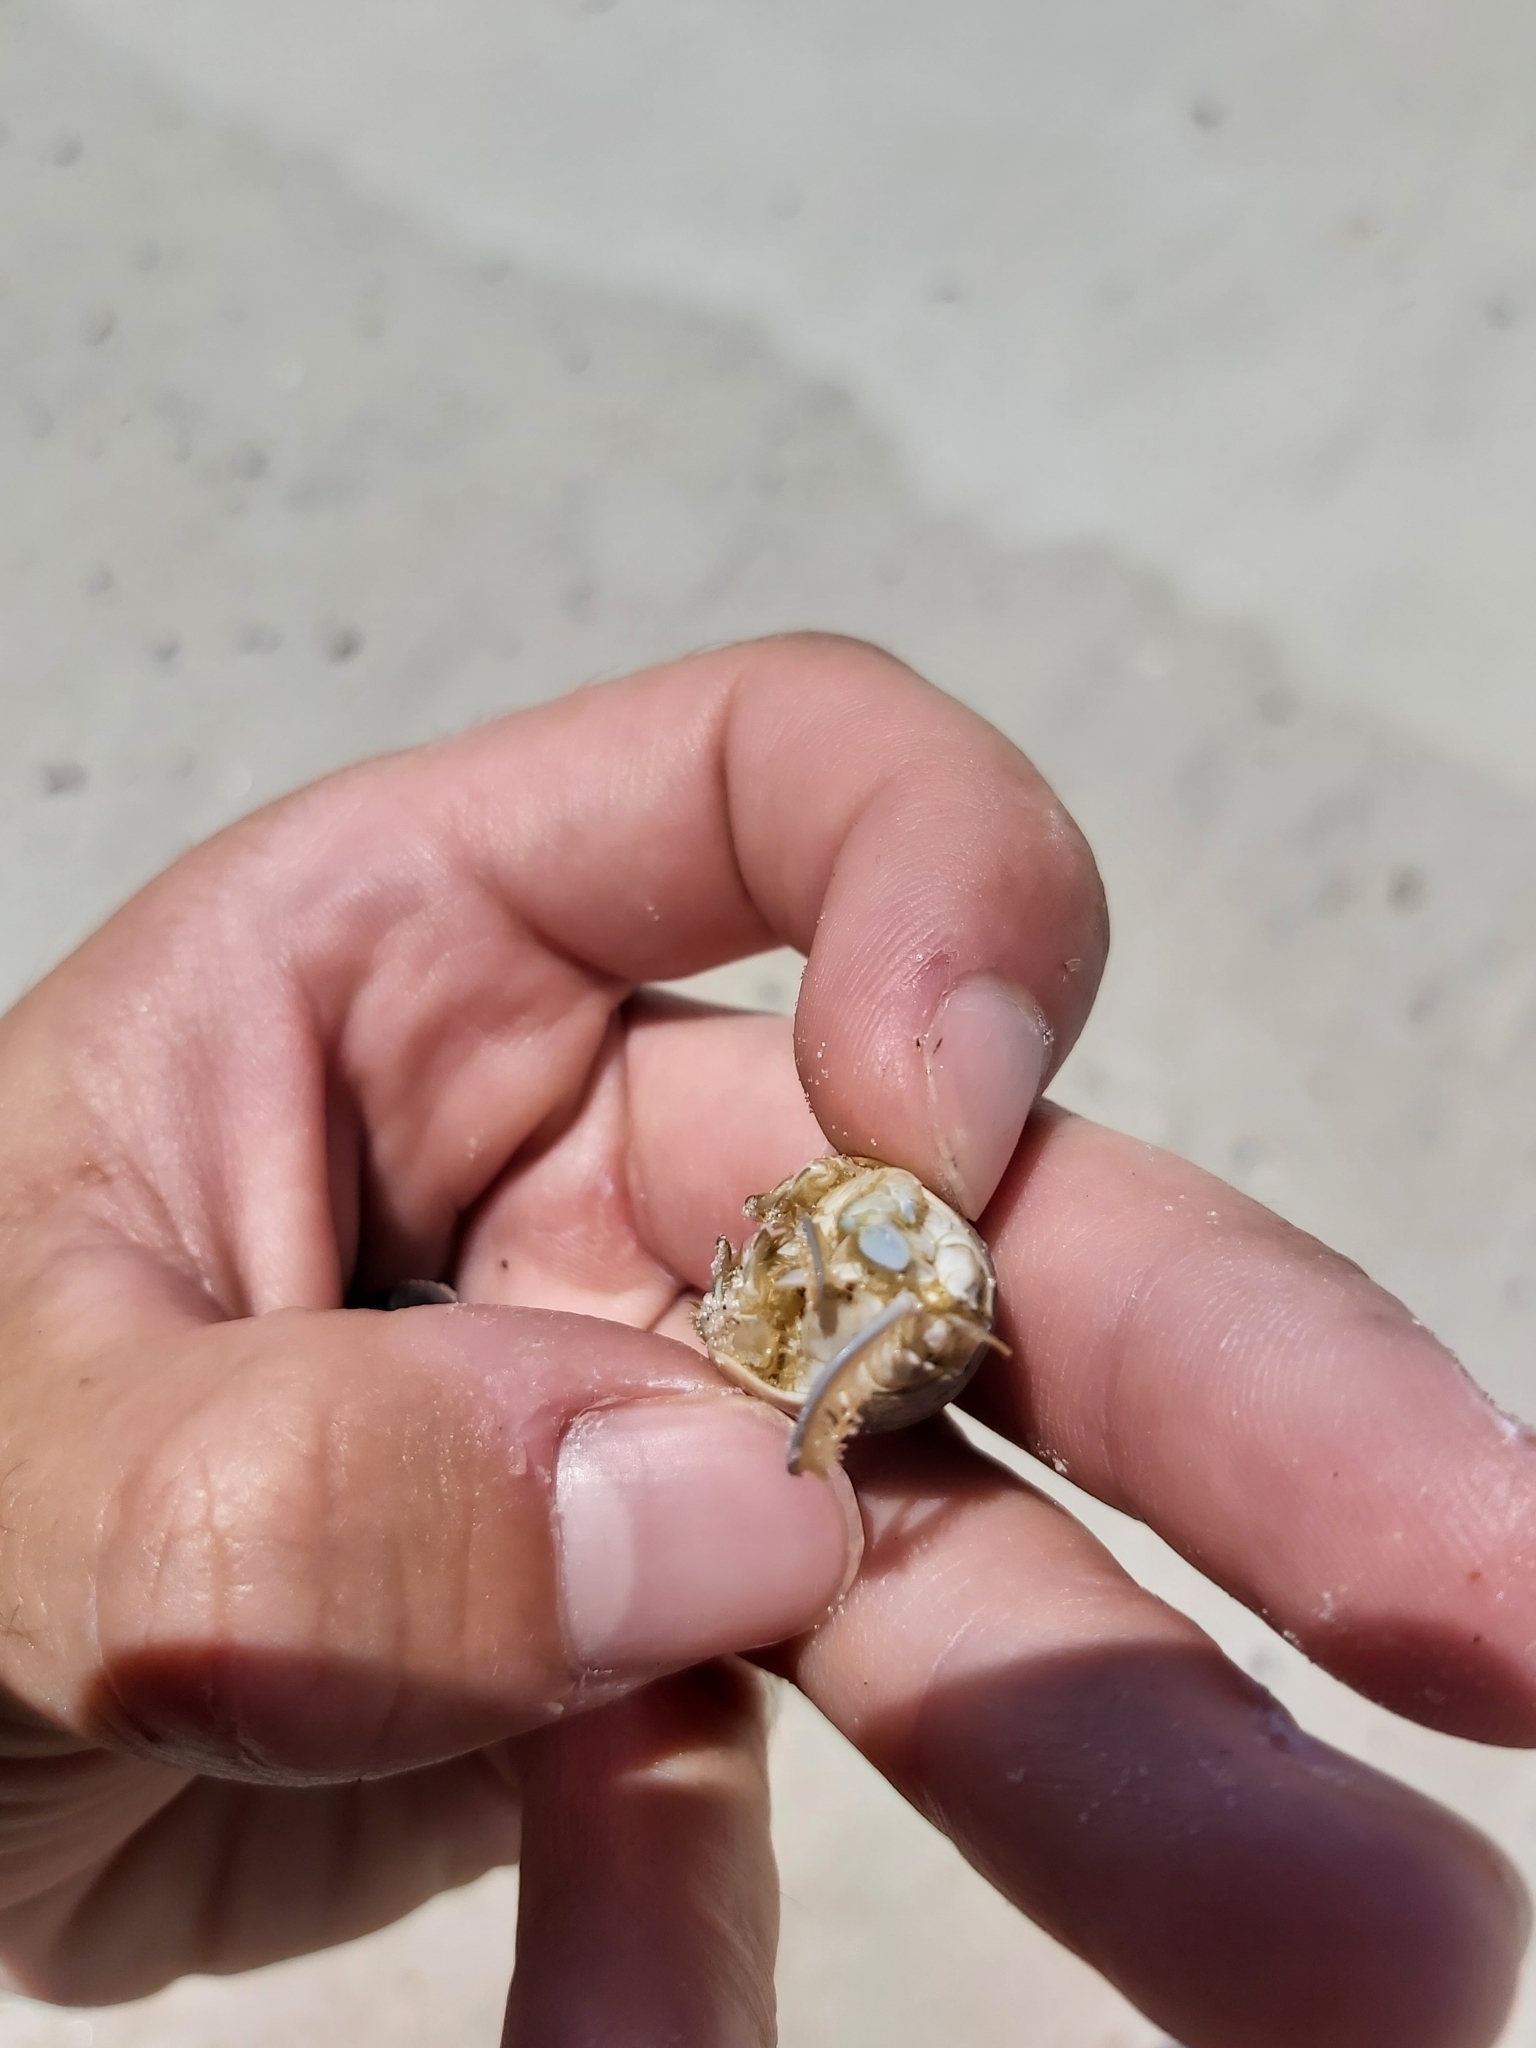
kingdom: Animalia
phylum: Arthropoda
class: Malacostraca
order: Decapoda
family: Hippidae
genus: Emerita
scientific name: Emerita talpoida
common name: Atlantic sand crab
